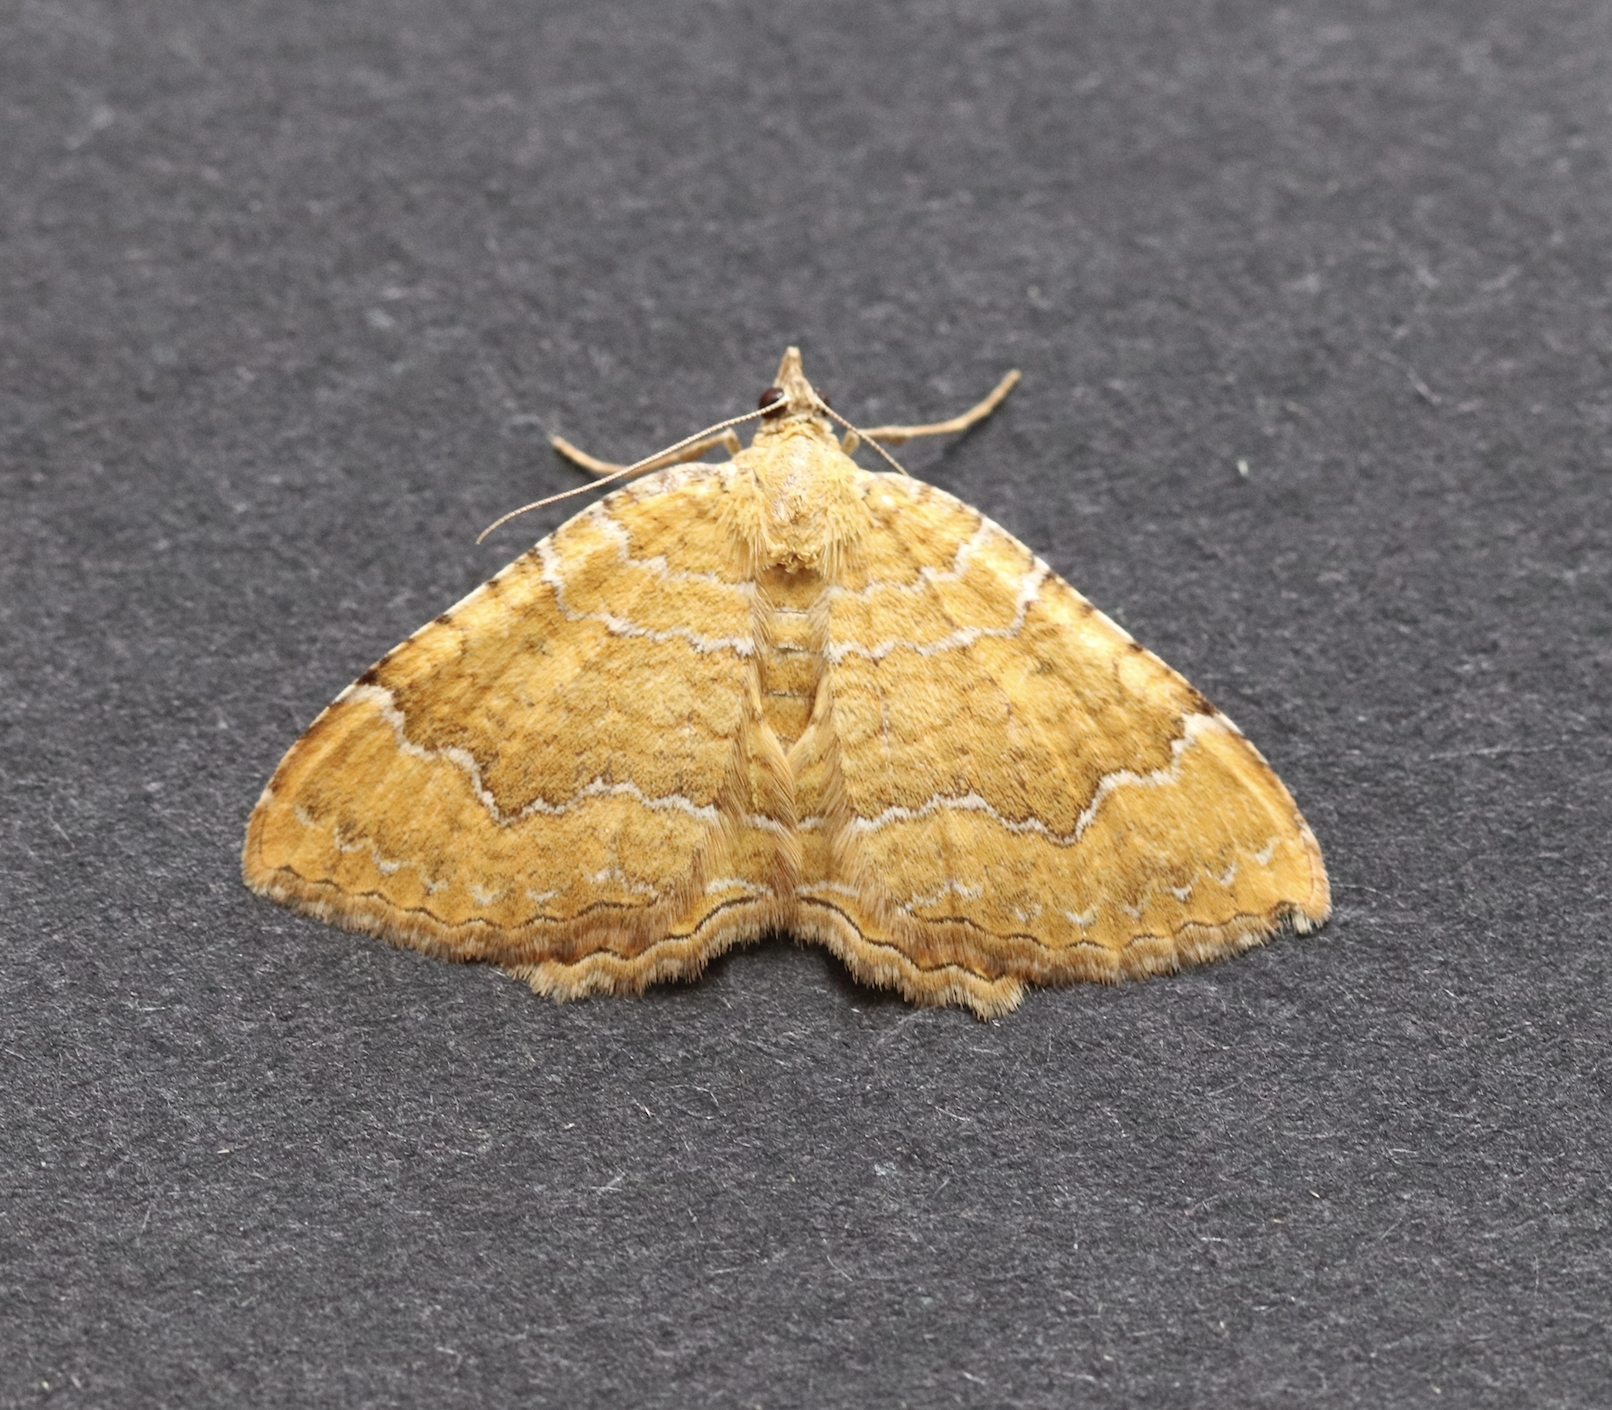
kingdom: Animalia
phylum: Arthropoda
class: Insecta
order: Lepidoptera
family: Geometridae
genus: Camptogramma
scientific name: Camptogramma bilineata
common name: Yellow shell
